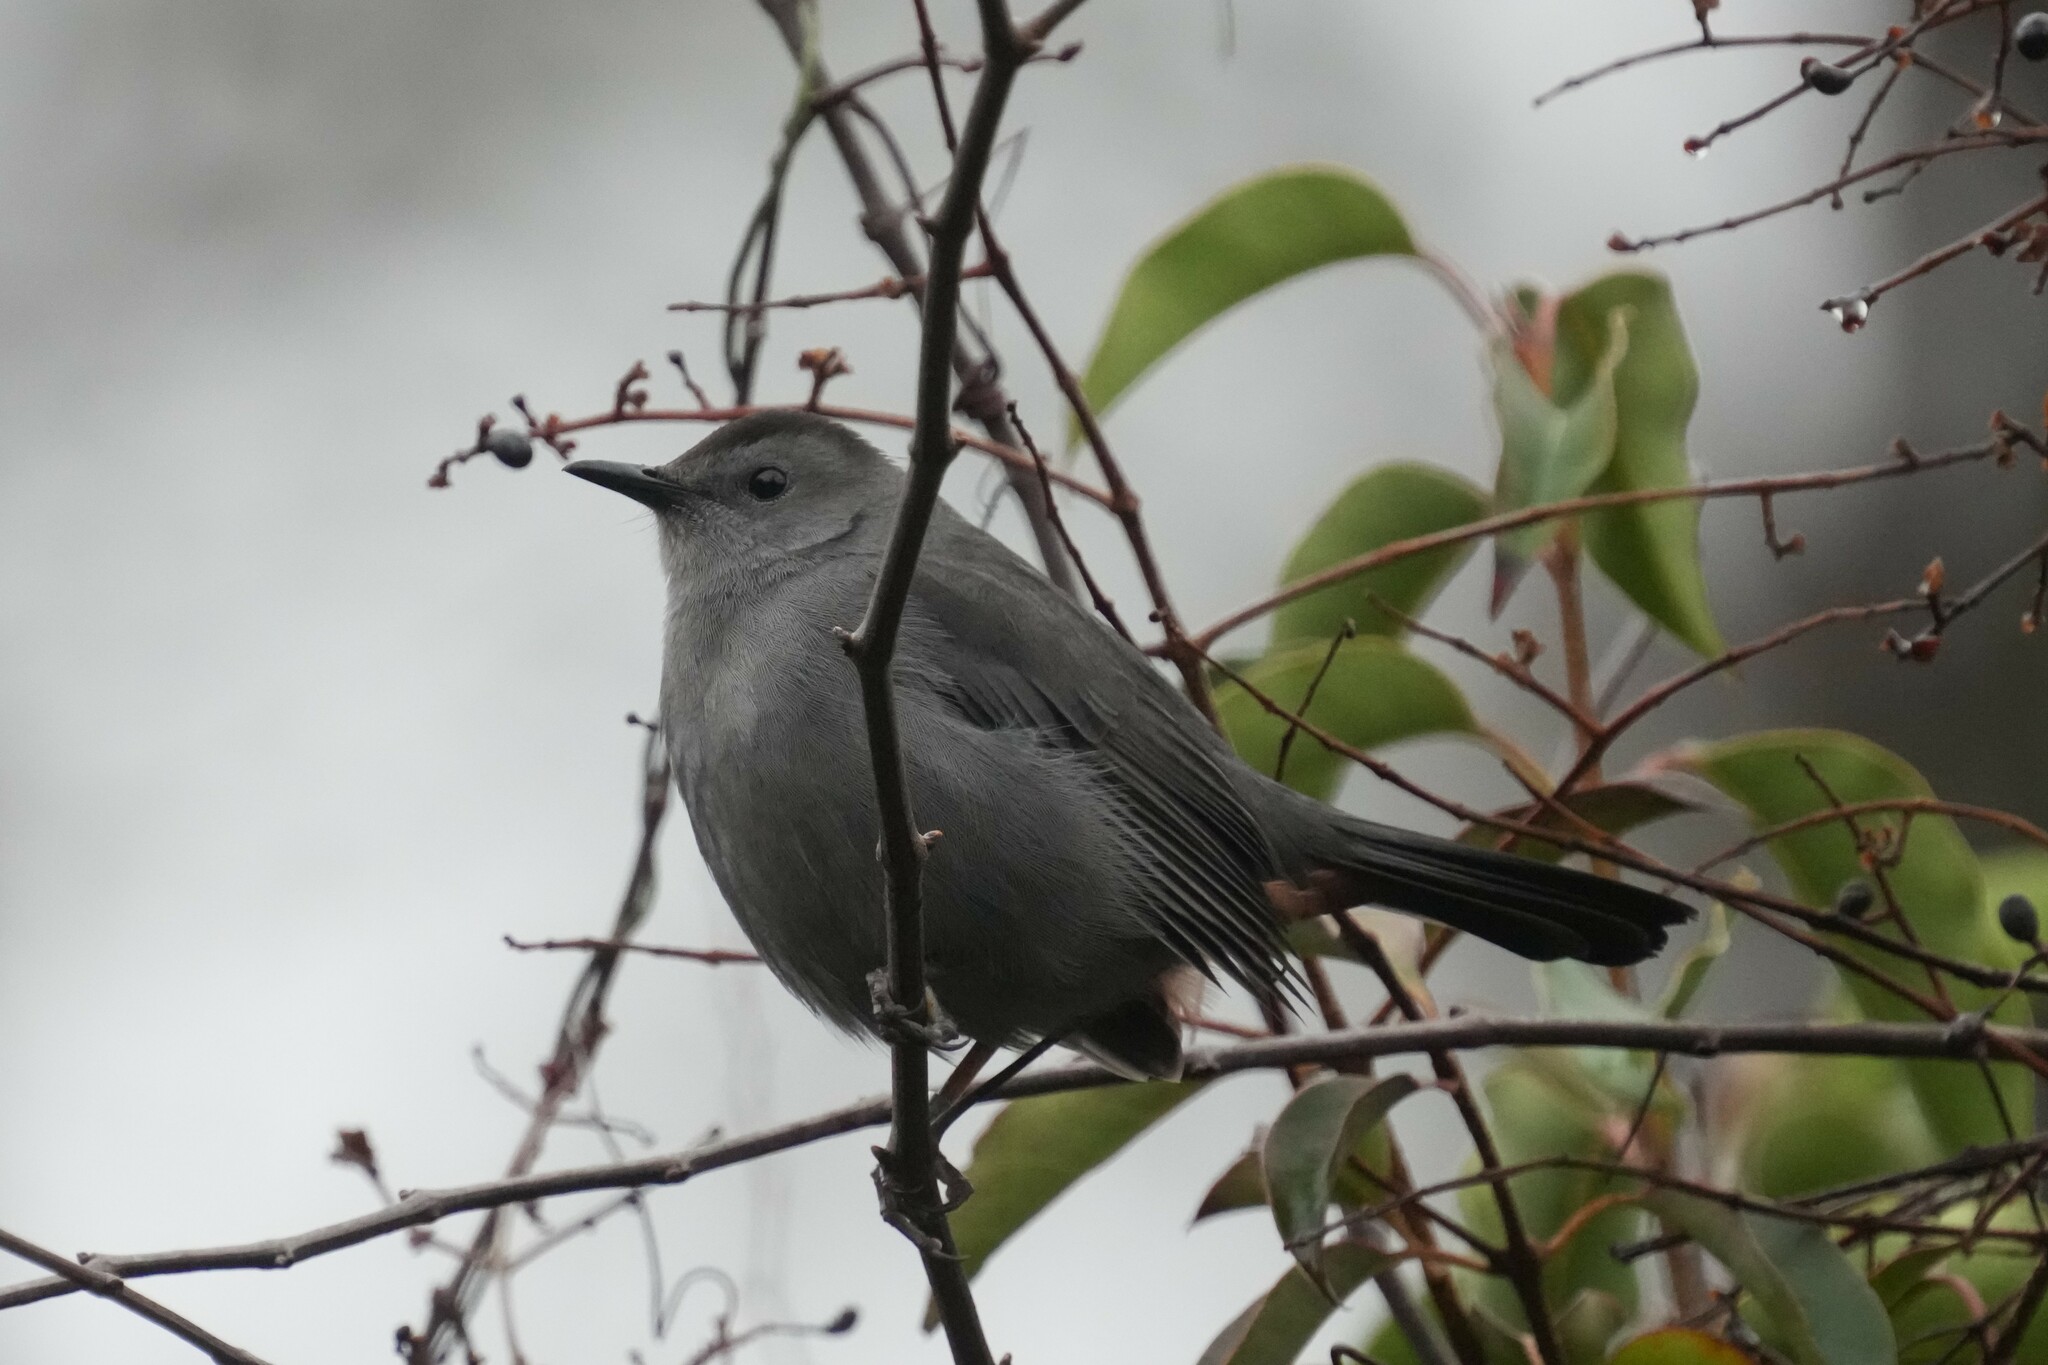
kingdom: Animalia
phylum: Chordata
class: Aves
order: Passeriformes
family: Mimidae
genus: Dumetella
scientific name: Dumetella carolinensis
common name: Gray catbird
